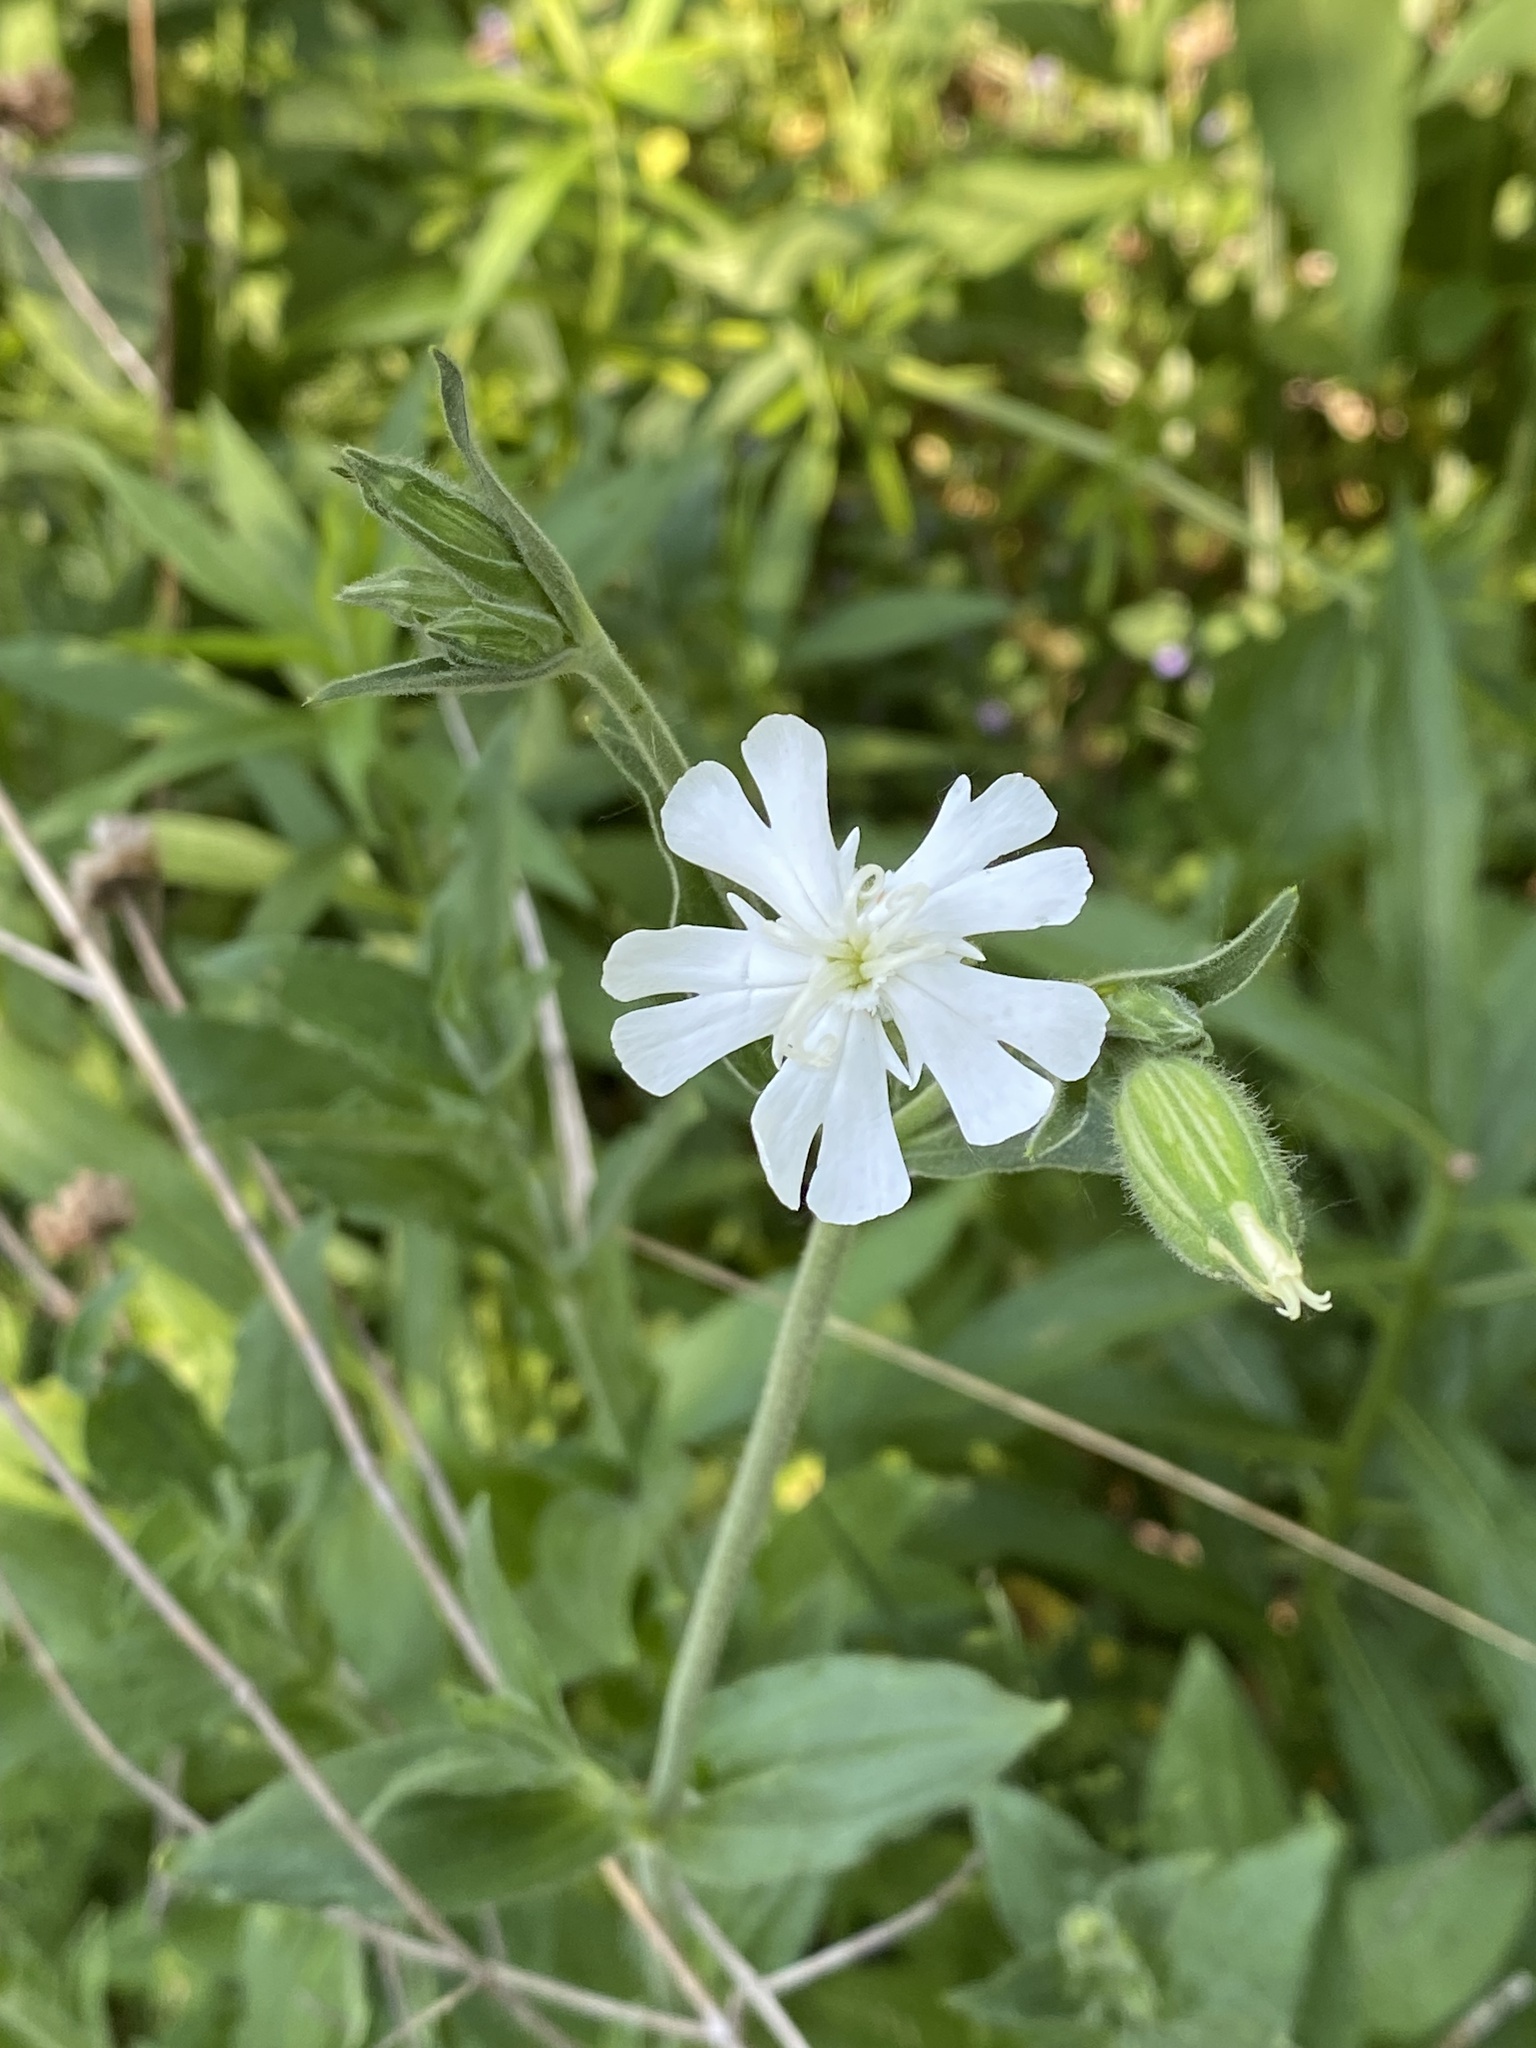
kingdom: Plantae
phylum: Tracheophyta
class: Magnoliopsida
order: Caryophyllales
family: Caryophyllaceae
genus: Silene
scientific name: Silene latifolia
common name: White campion
